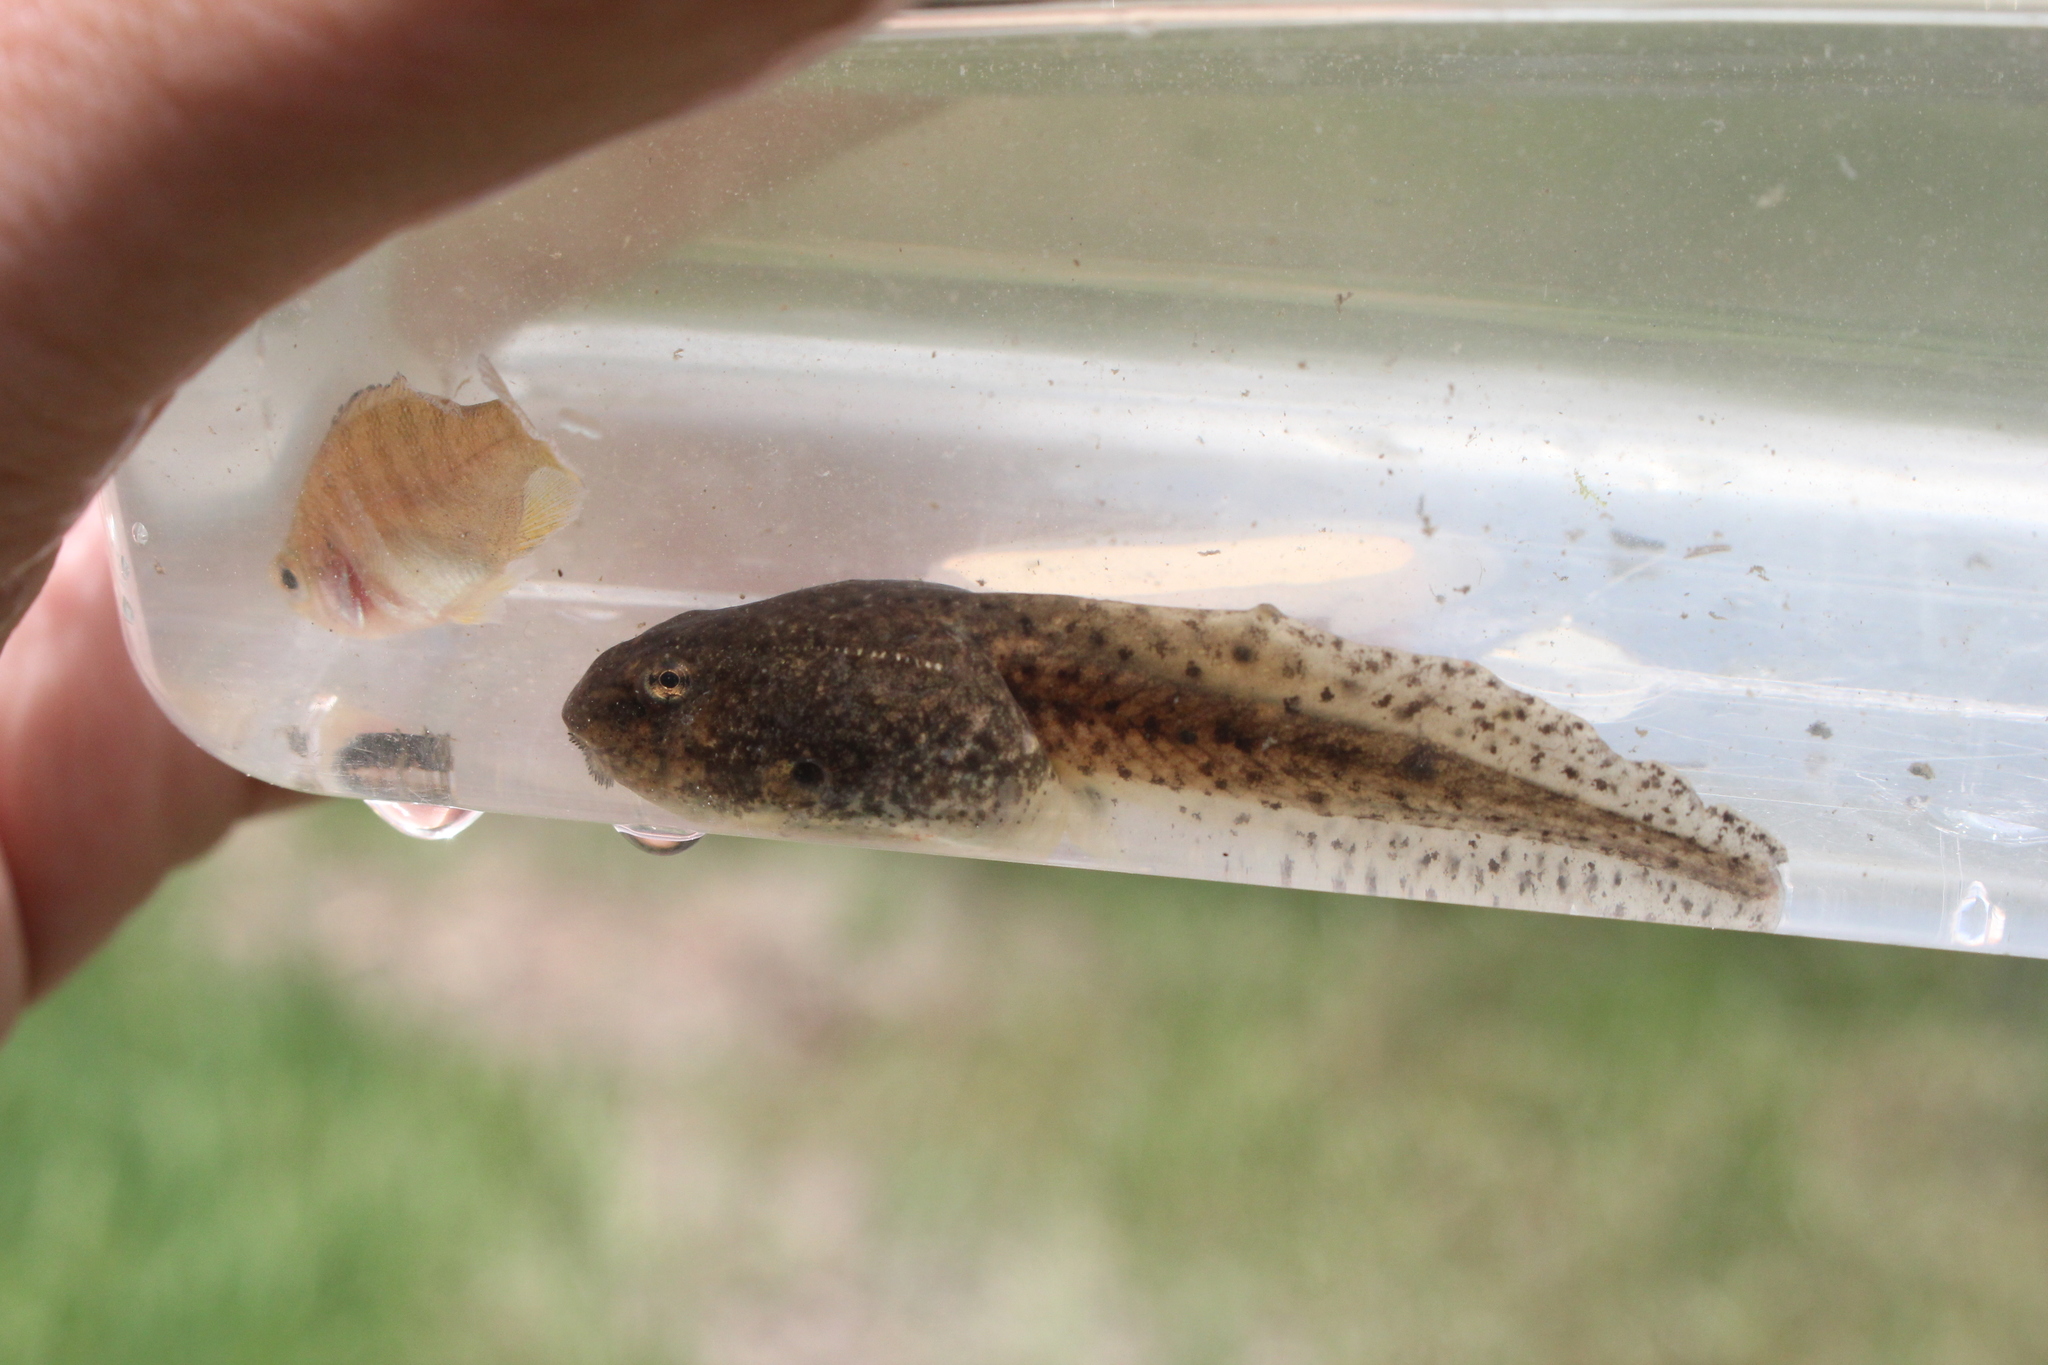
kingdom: Animalia
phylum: Chordata
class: Amphibia
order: Anura
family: Ranidae
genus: Lithobates
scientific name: Lithobates clamitans
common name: Green frog
